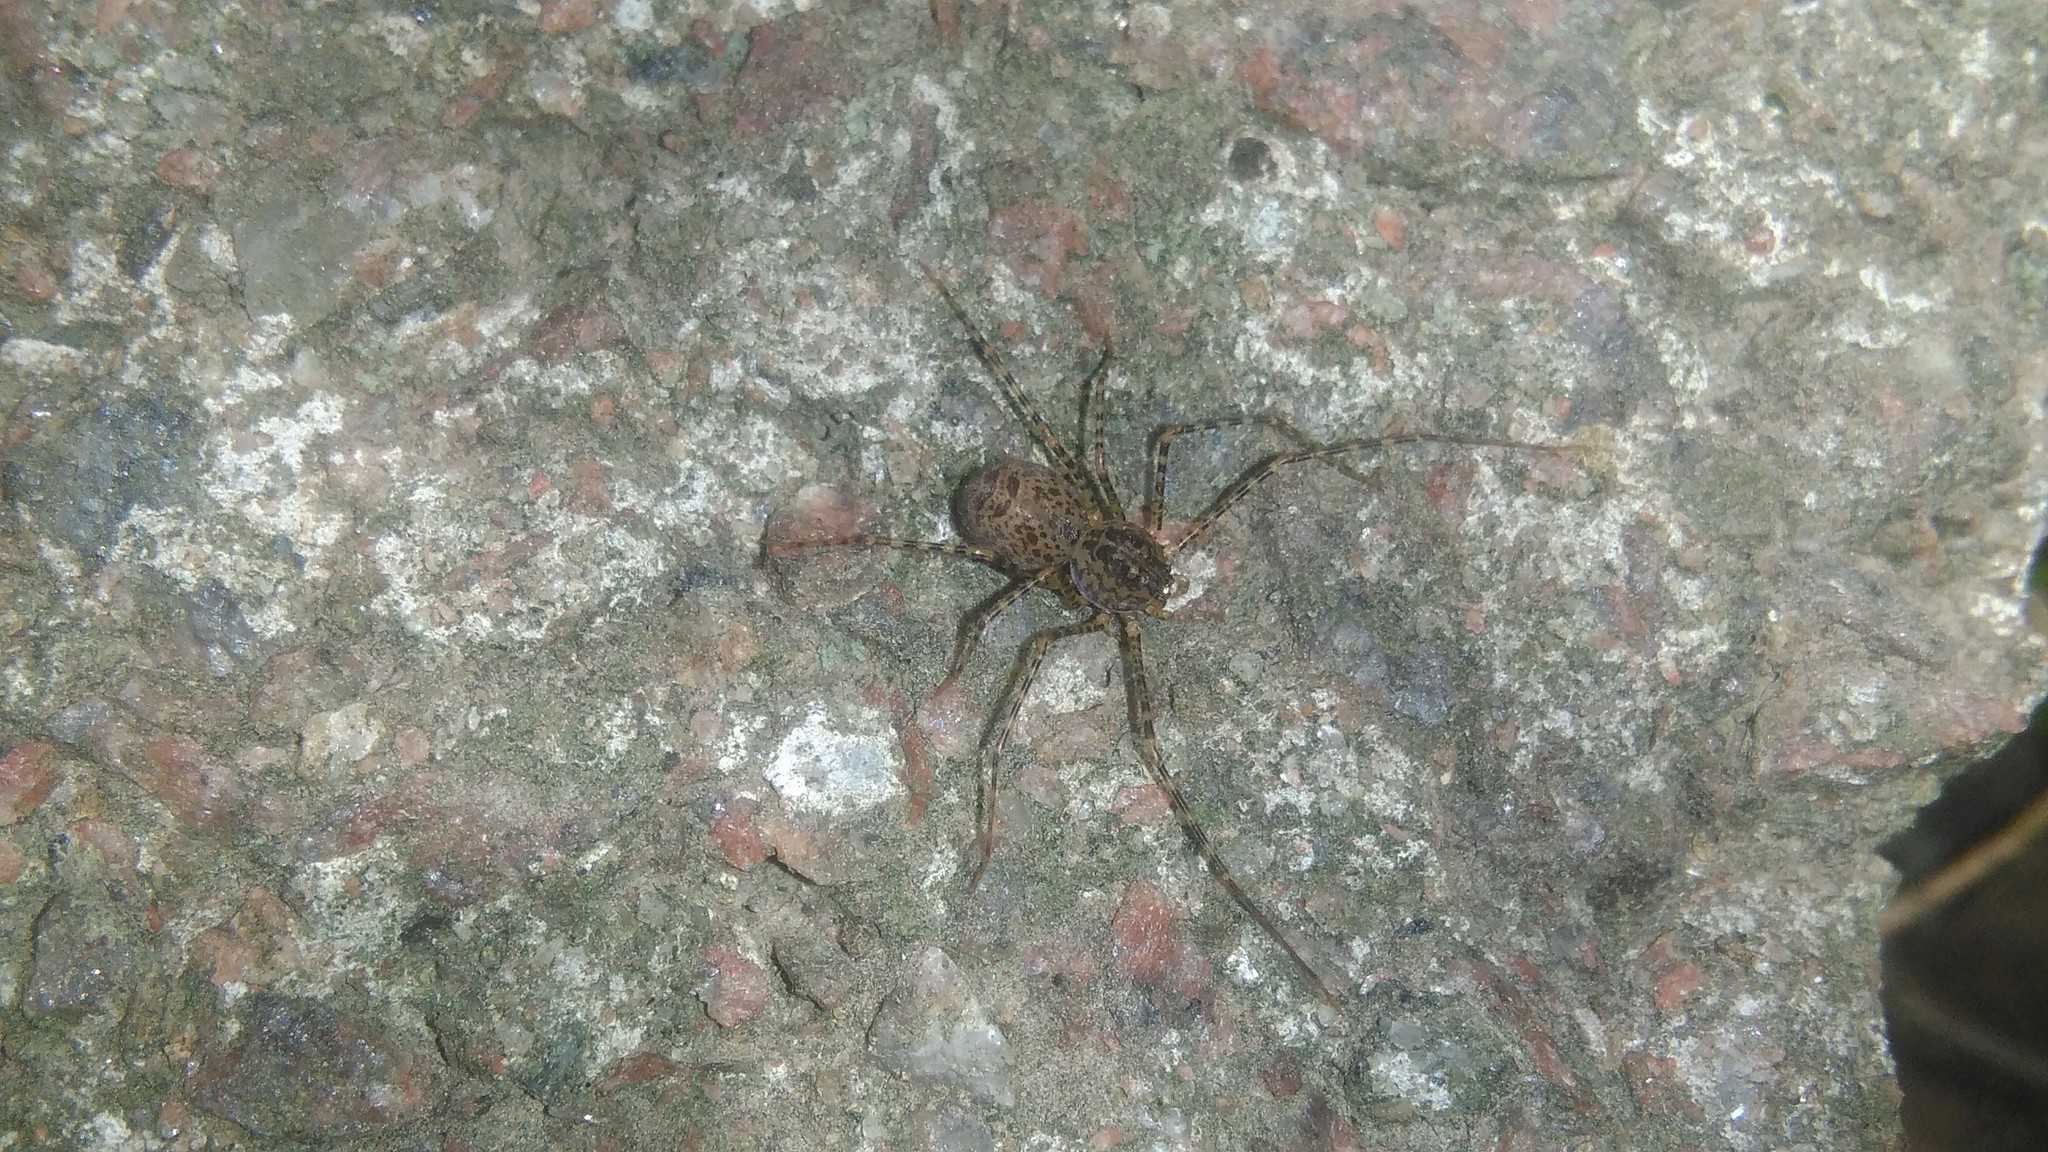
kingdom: Animalia
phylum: Arthropoda
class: Arachnida
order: Araneae
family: Scytodidae
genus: Scytodes
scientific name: Scytodes globula
